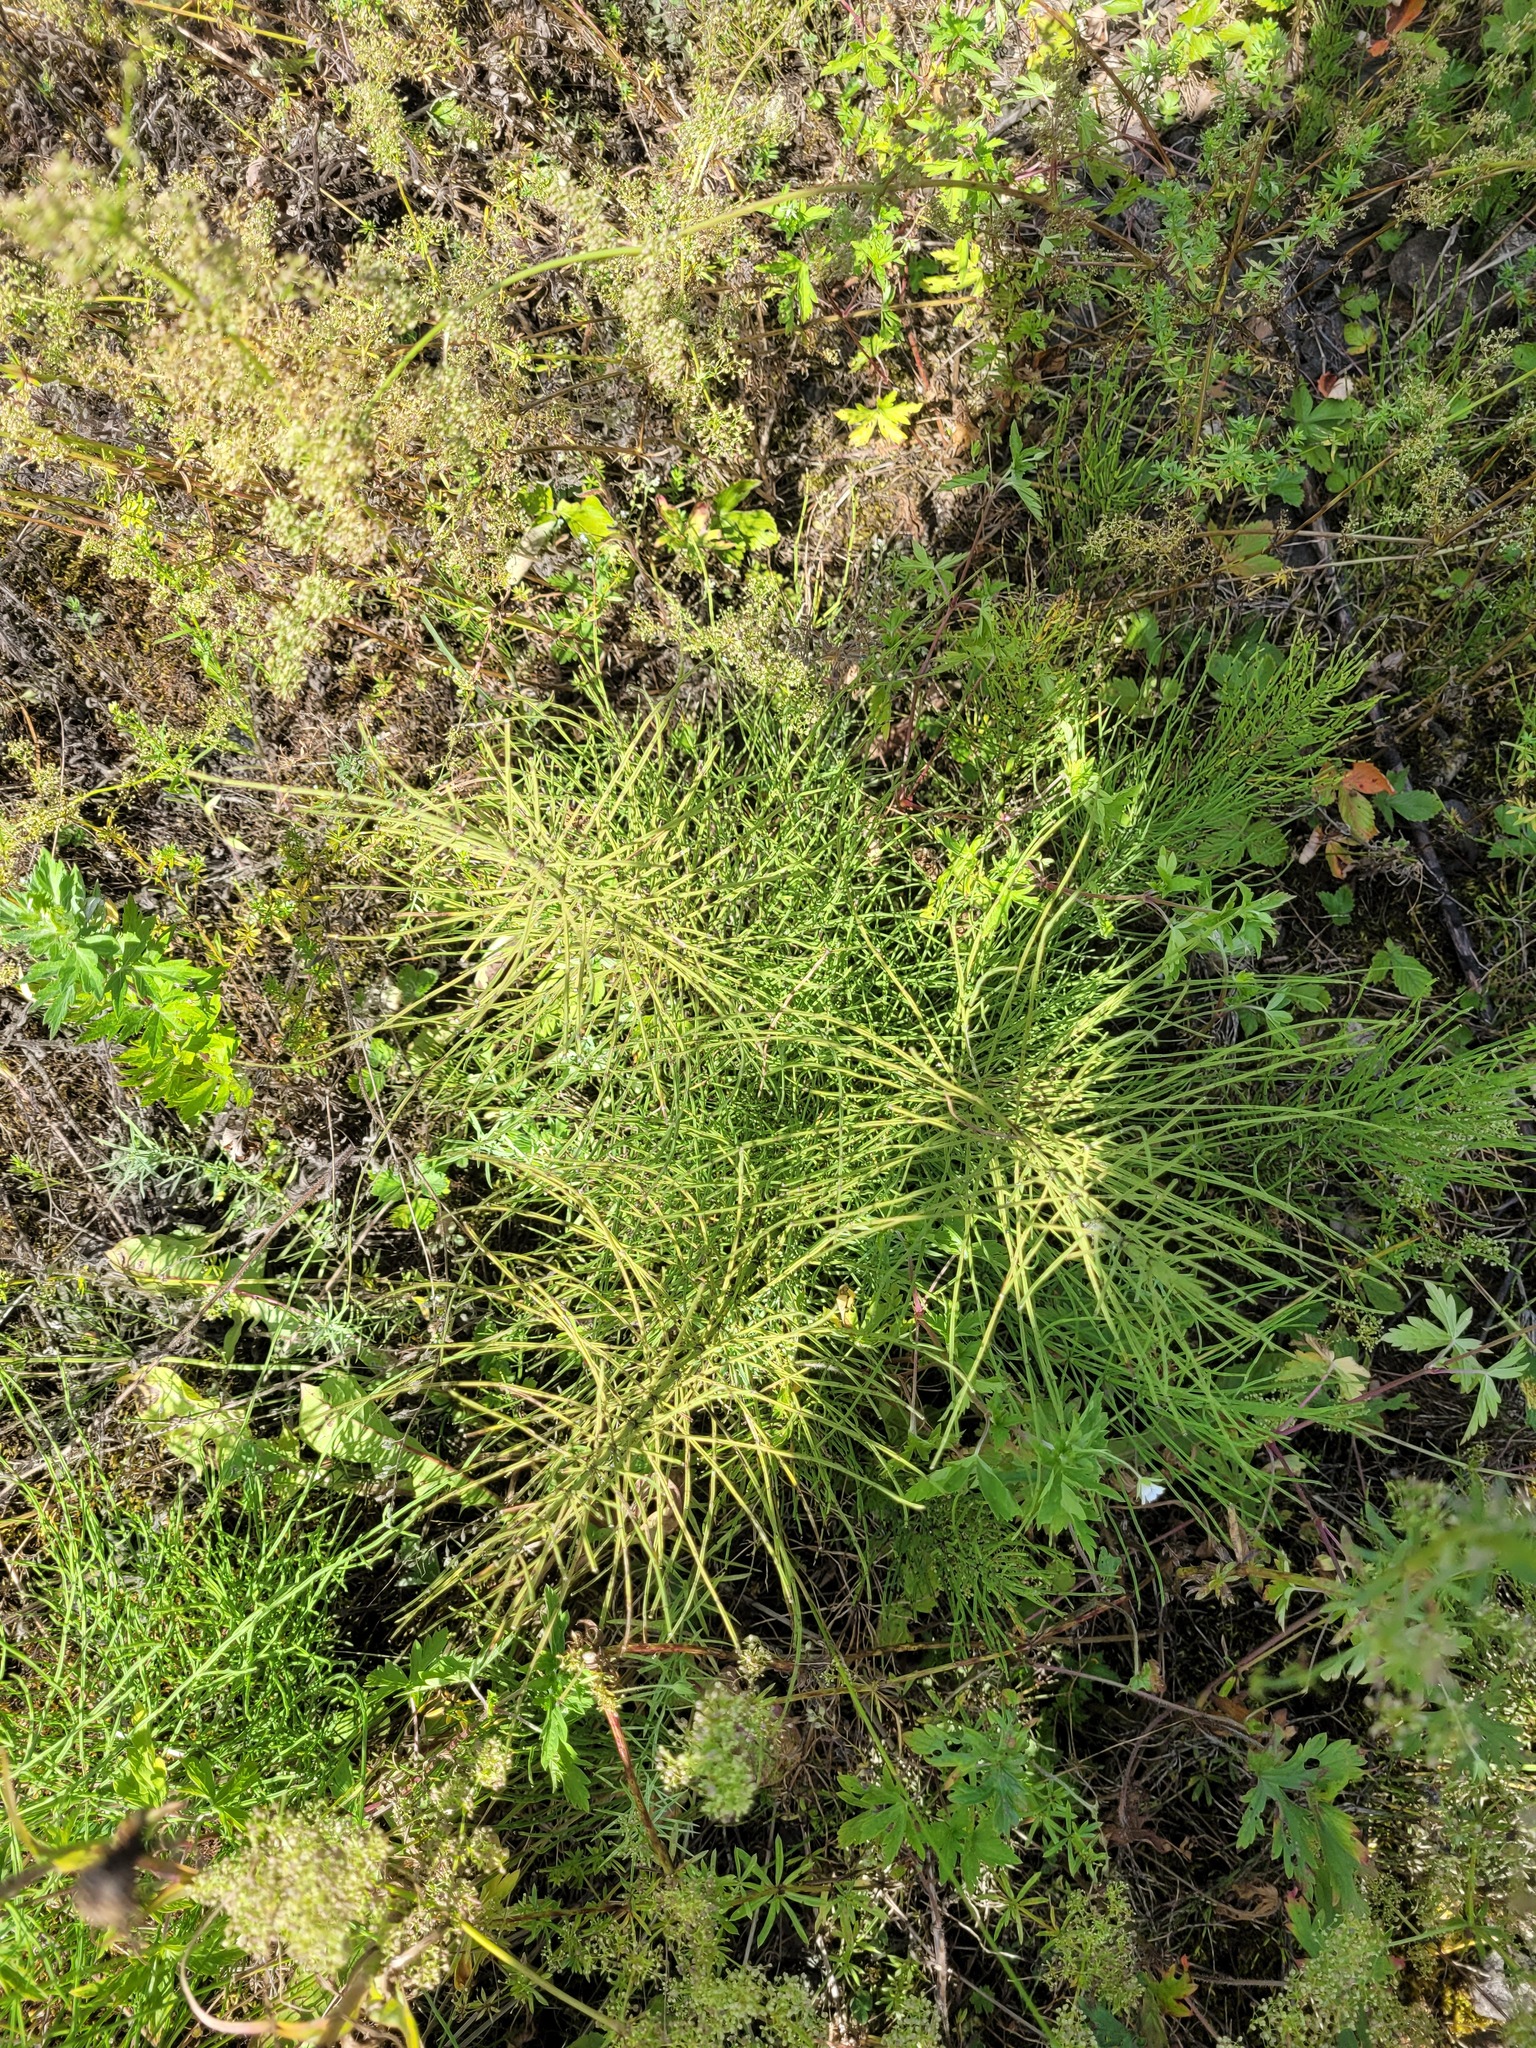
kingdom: Plantae
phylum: Tracheophyta
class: Polypodiopsida
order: Equisetales
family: Equisetaceae
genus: Equisetum
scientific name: Equisetum arvense
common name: Field horsetail
